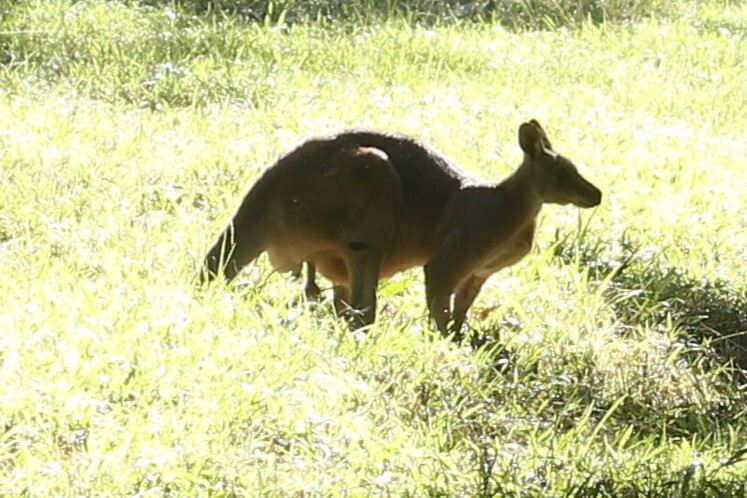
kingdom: Animalia
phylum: Chordata
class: Mammalia
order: Diprotodontia
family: Macropodidae
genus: Macropus
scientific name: Macropus giganteus
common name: Eastern grey kangaroo
